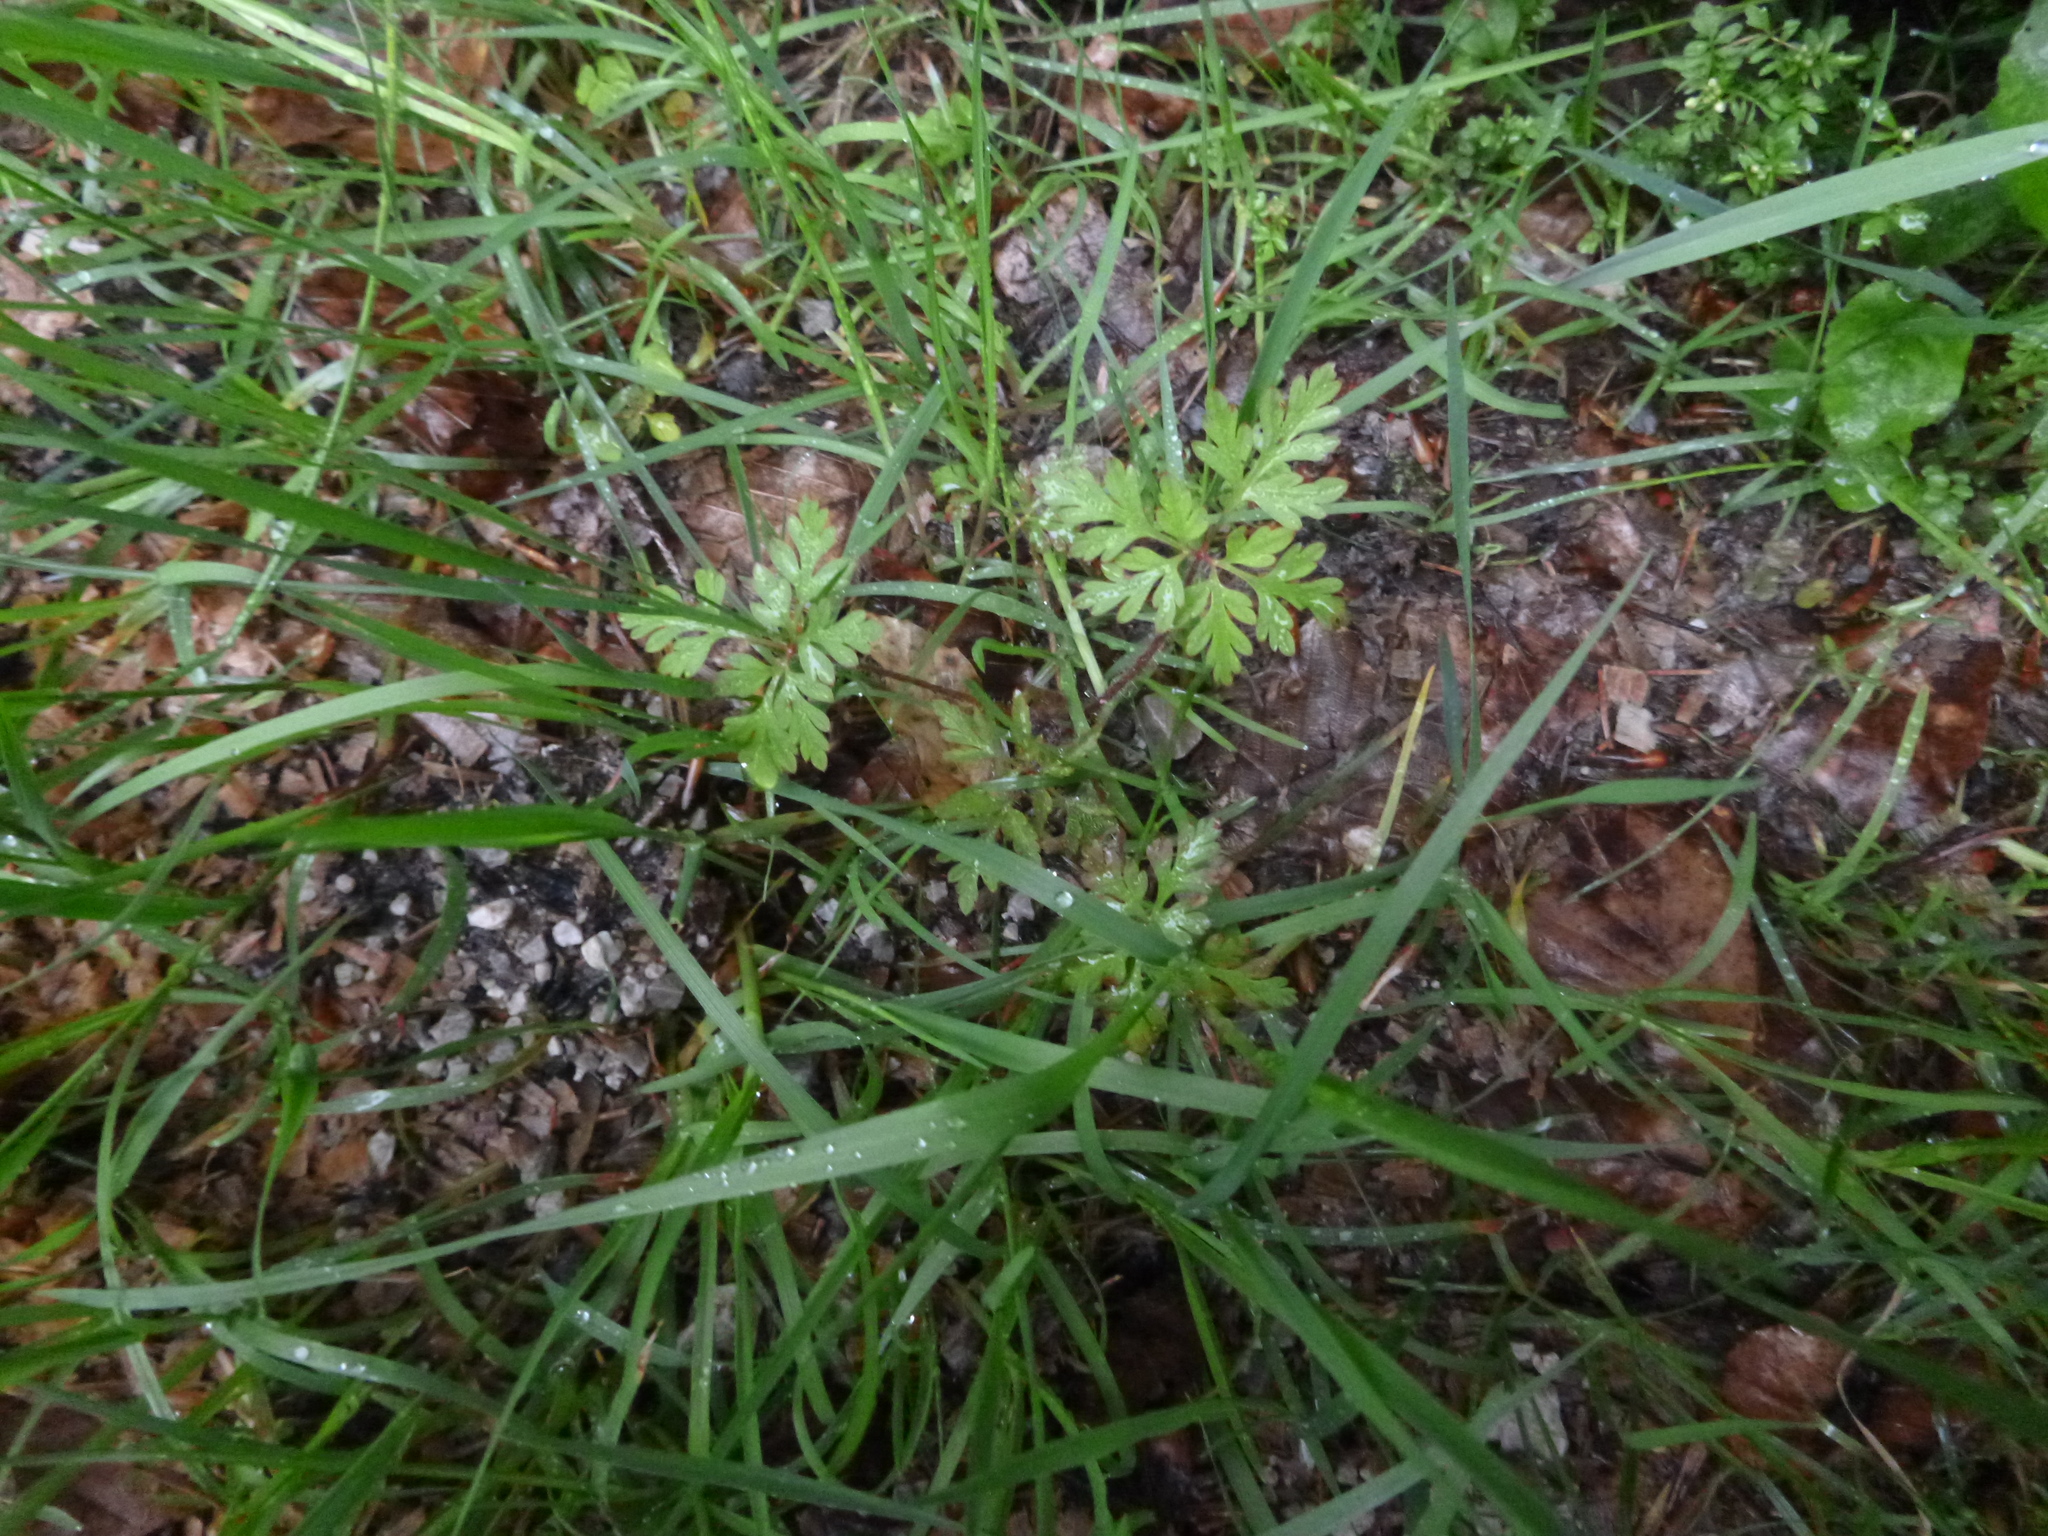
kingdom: Plantae
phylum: Tracheophyta
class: Magnoliopsida
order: Geraniales
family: Geraniaceae
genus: Geranium
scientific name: Geranium robertianum
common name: Herb-robert
